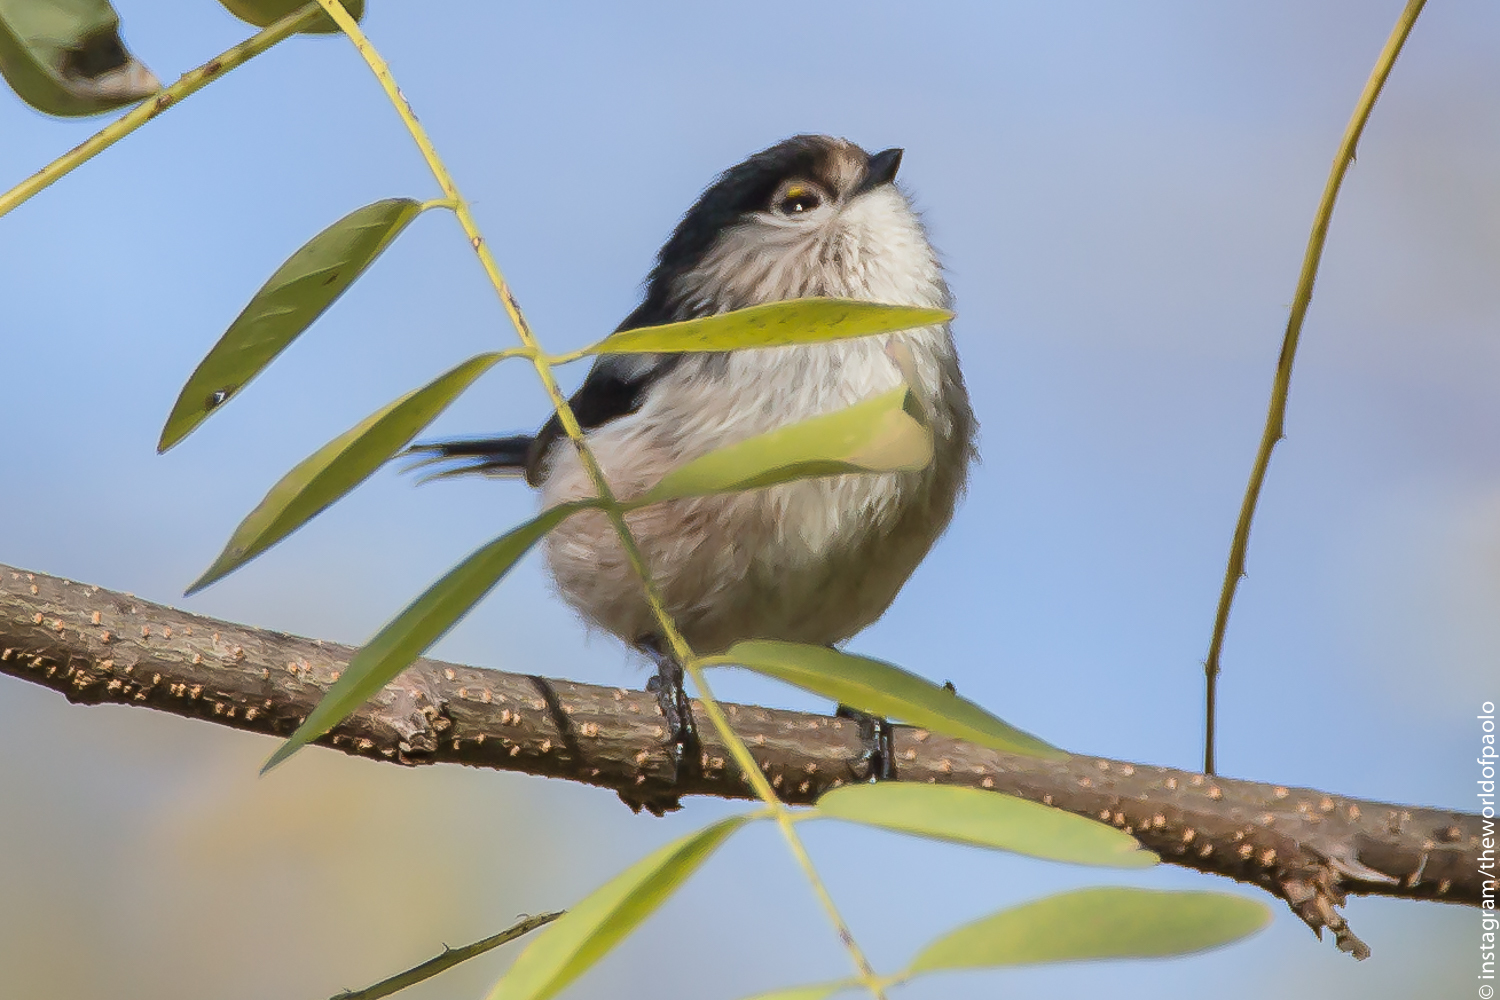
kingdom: Animalia
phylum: Chordata
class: Aves
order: Passeriformes
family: Aegithalidae
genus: Aegithalos
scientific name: Aegithalos caudatus
